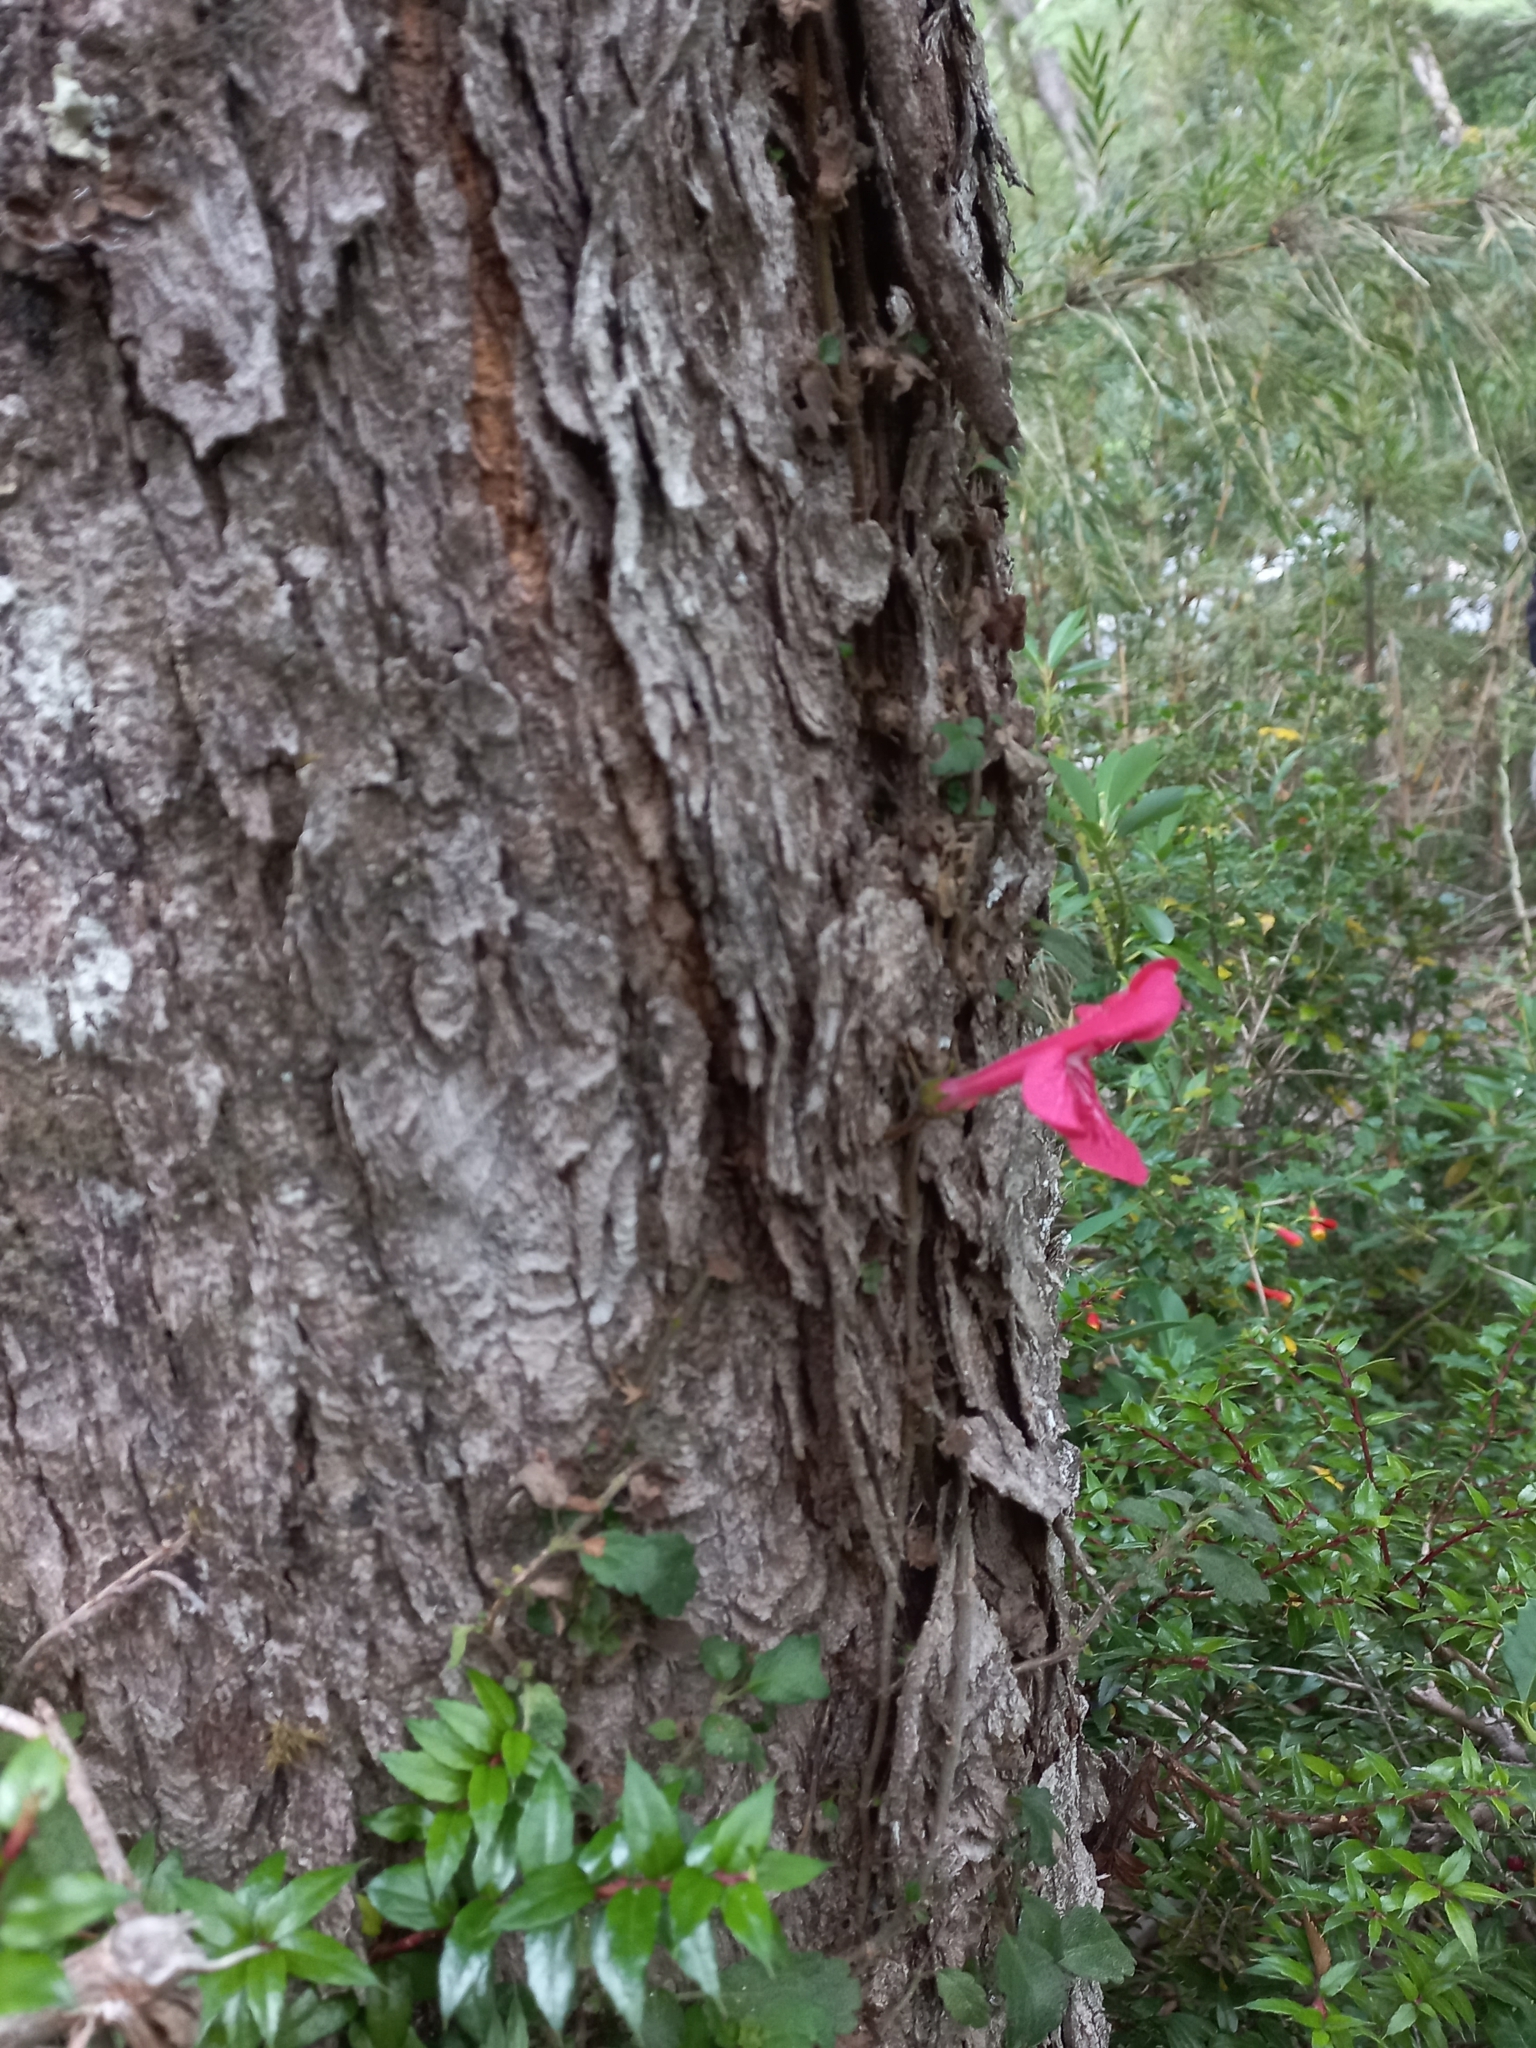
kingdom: Plantae
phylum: Tracheophyta
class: Magnoliopsida
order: Lamiales
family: Gesneriaceae
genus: Asteranthera
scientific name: Asteranthera ovata
